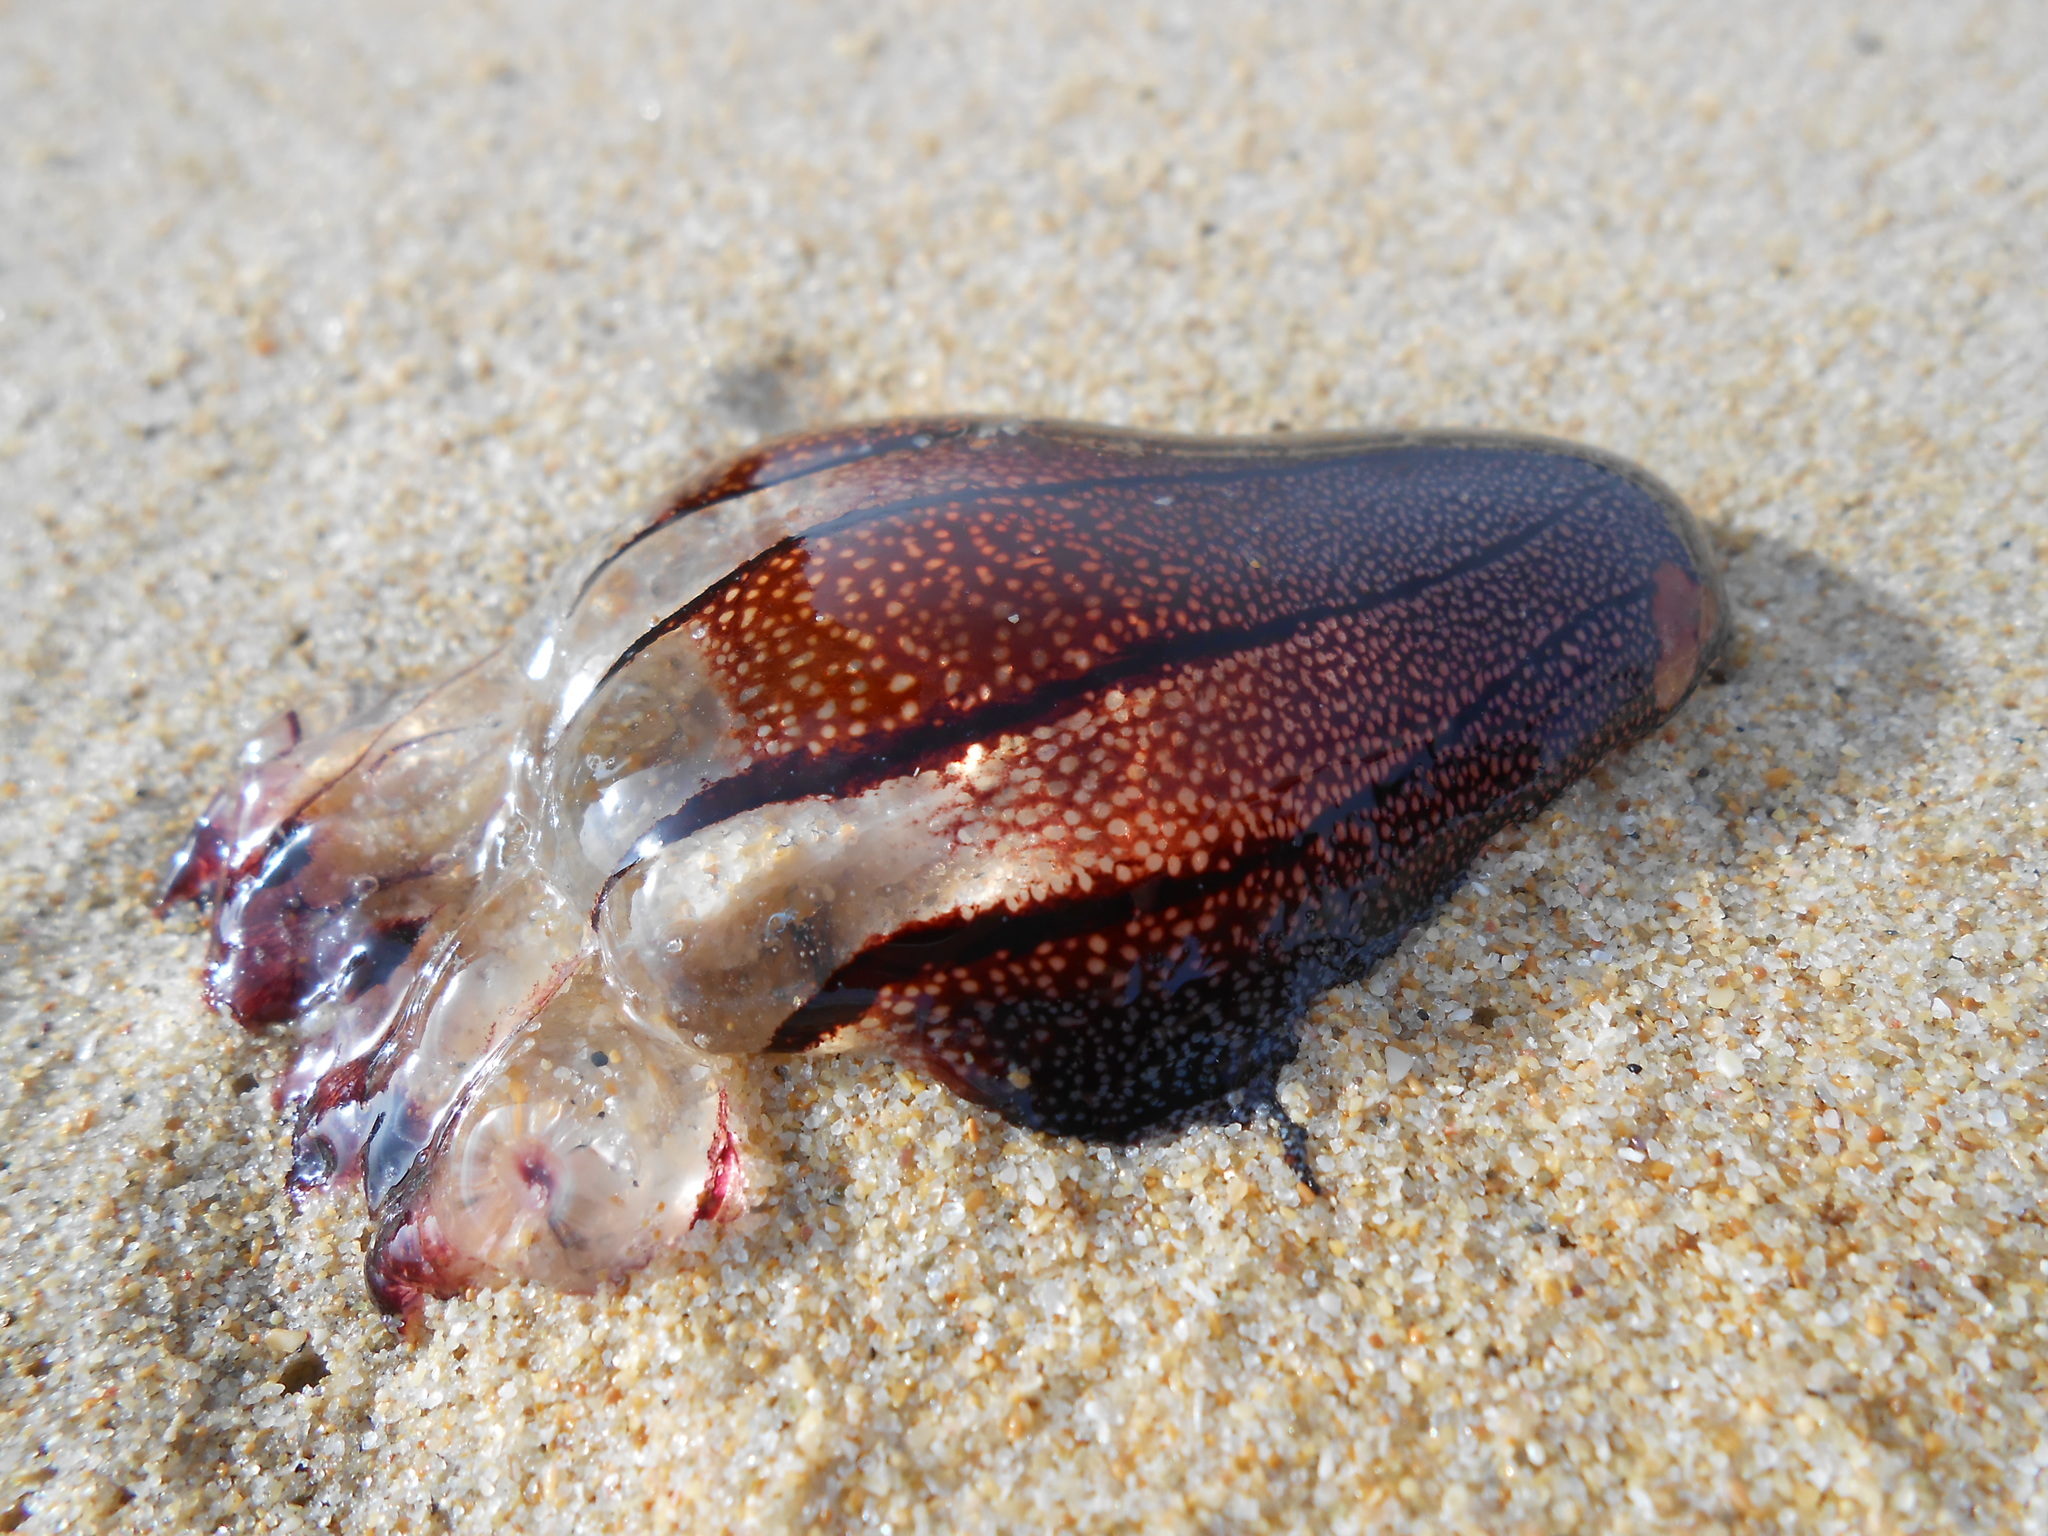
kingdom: Animalia
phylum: Cnidaria
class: Scyphozoa
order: Semaeostomeae
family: Pelagiidae
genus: Chrysaora
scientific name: Chrysaora fulgida
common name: Sea nettle
